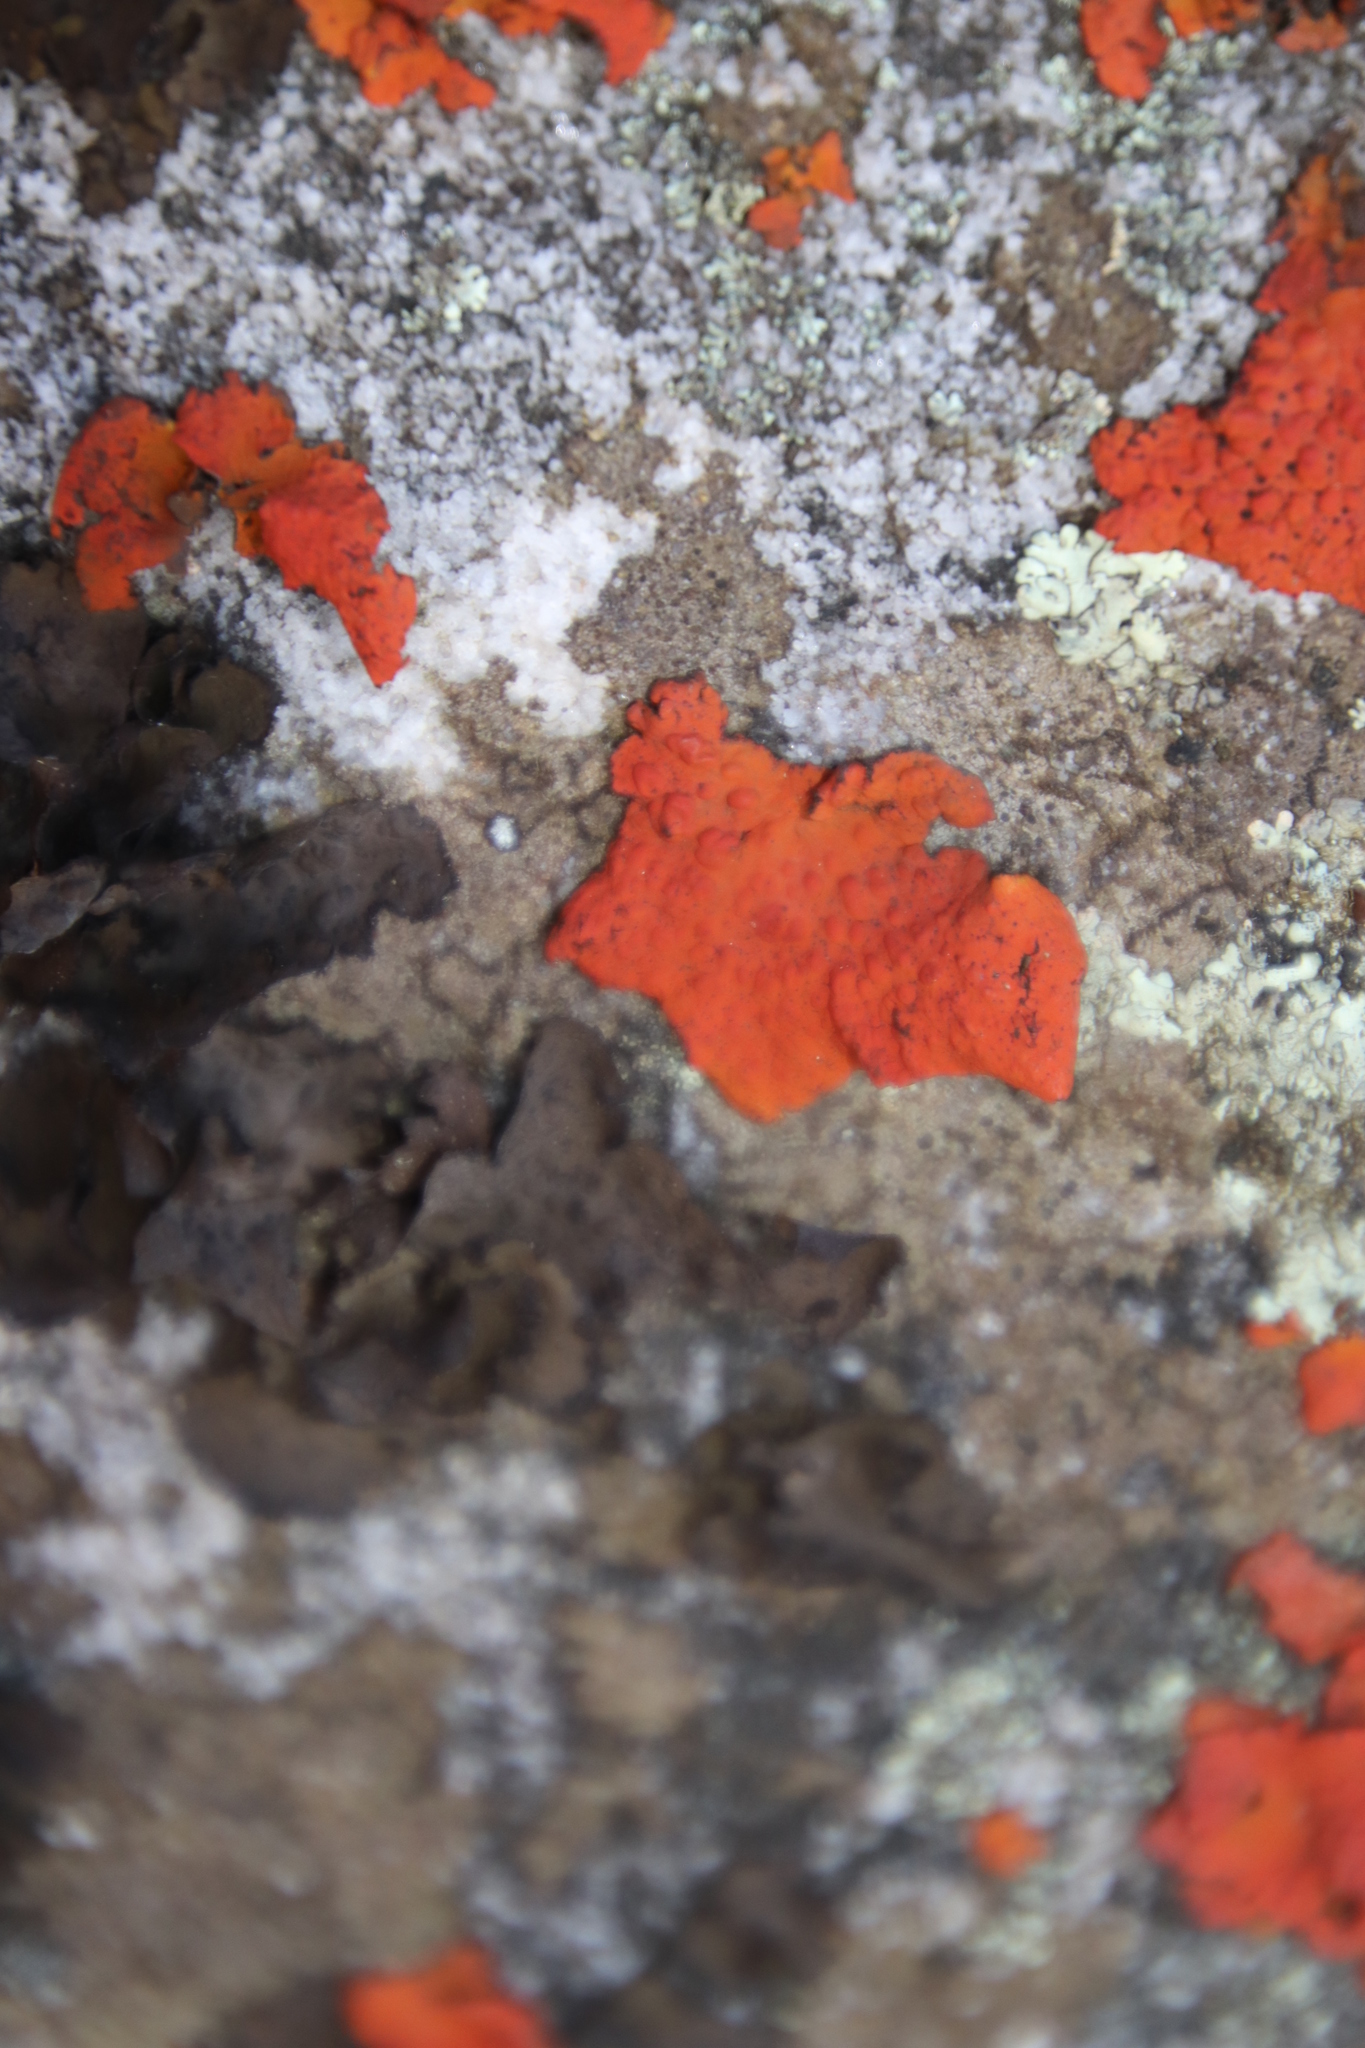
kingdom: Fungi
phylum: Ascomycota
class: Lecanoromycetes
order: Umbilicariales
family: Umbilicariaceae
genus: Lasallia
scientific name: Lasallia rubiginosa
